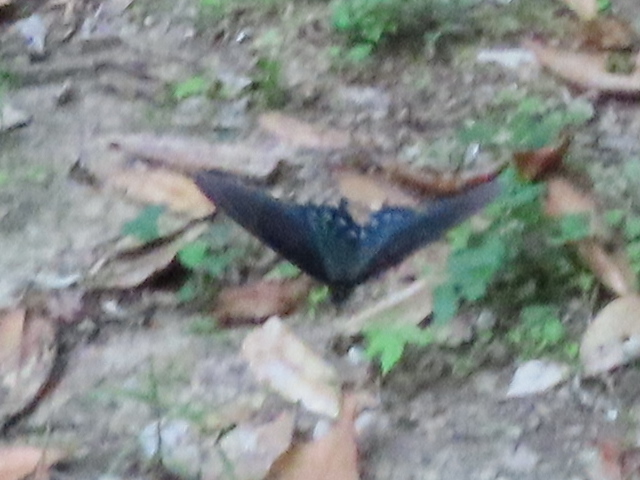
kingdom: Animalia
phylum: Arthropoda
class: Insecta
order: Lepidoptera
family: Papilionidae
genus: Battus
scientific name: Battus philenor
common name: Pipevine swallowtail
